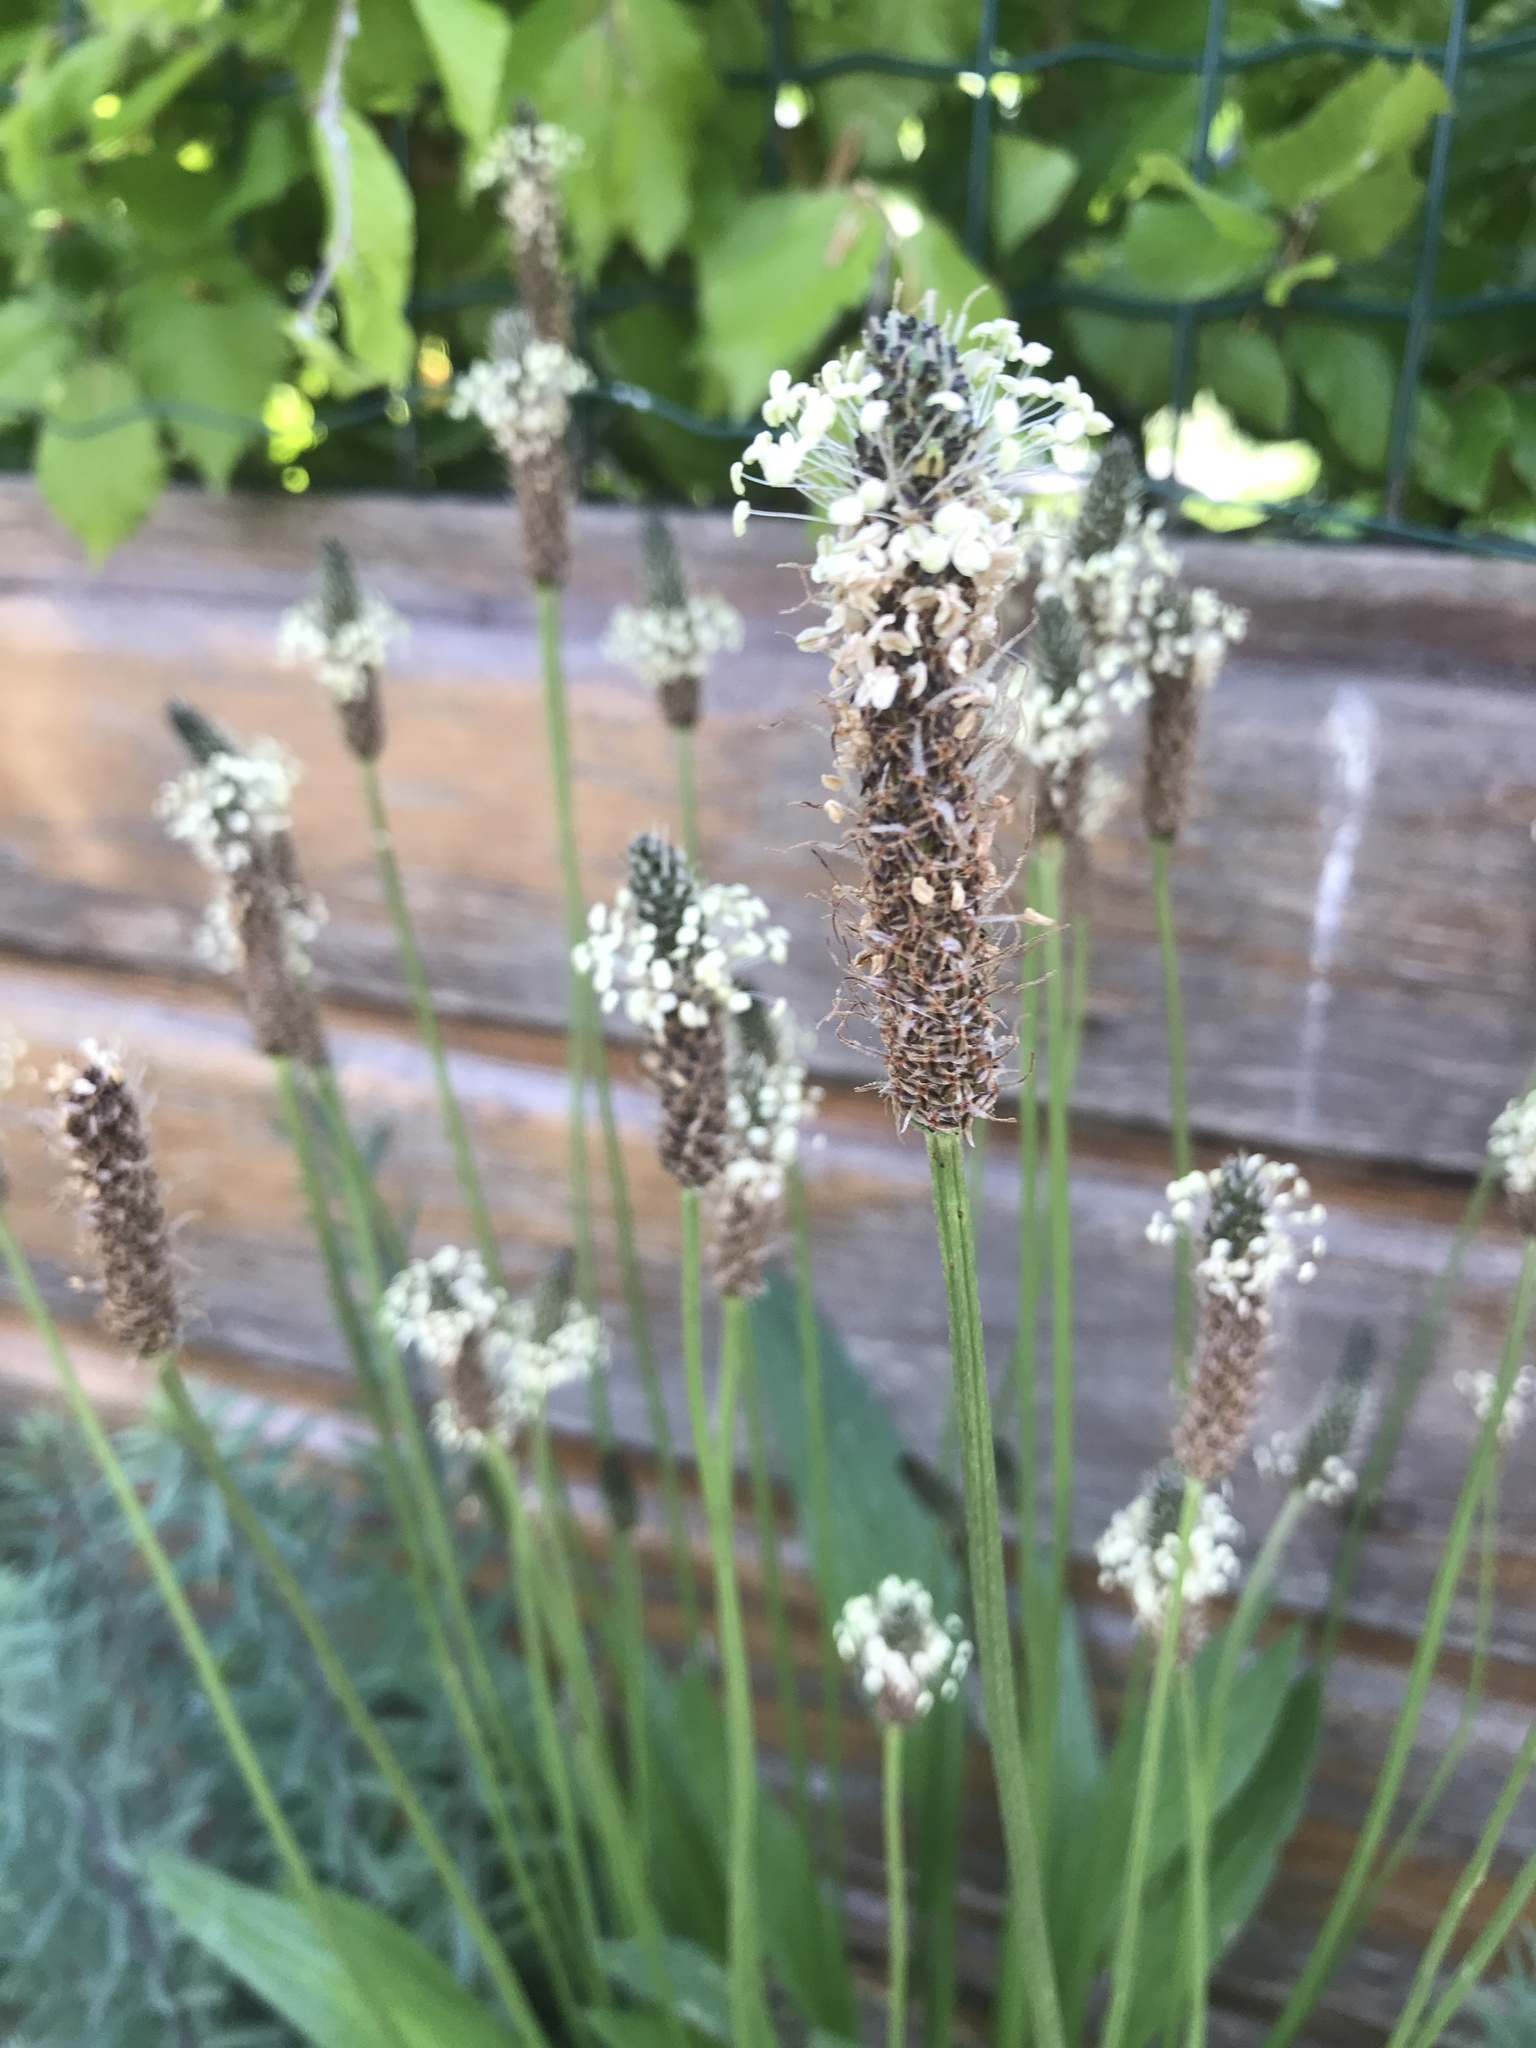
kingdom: Plantae
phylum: Tracheophyta
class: Magnoliopsida
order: Lamiales
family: Plantaginaceae
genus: Plantago
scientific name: Plantago lanceolata
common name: Ribwort plantain
